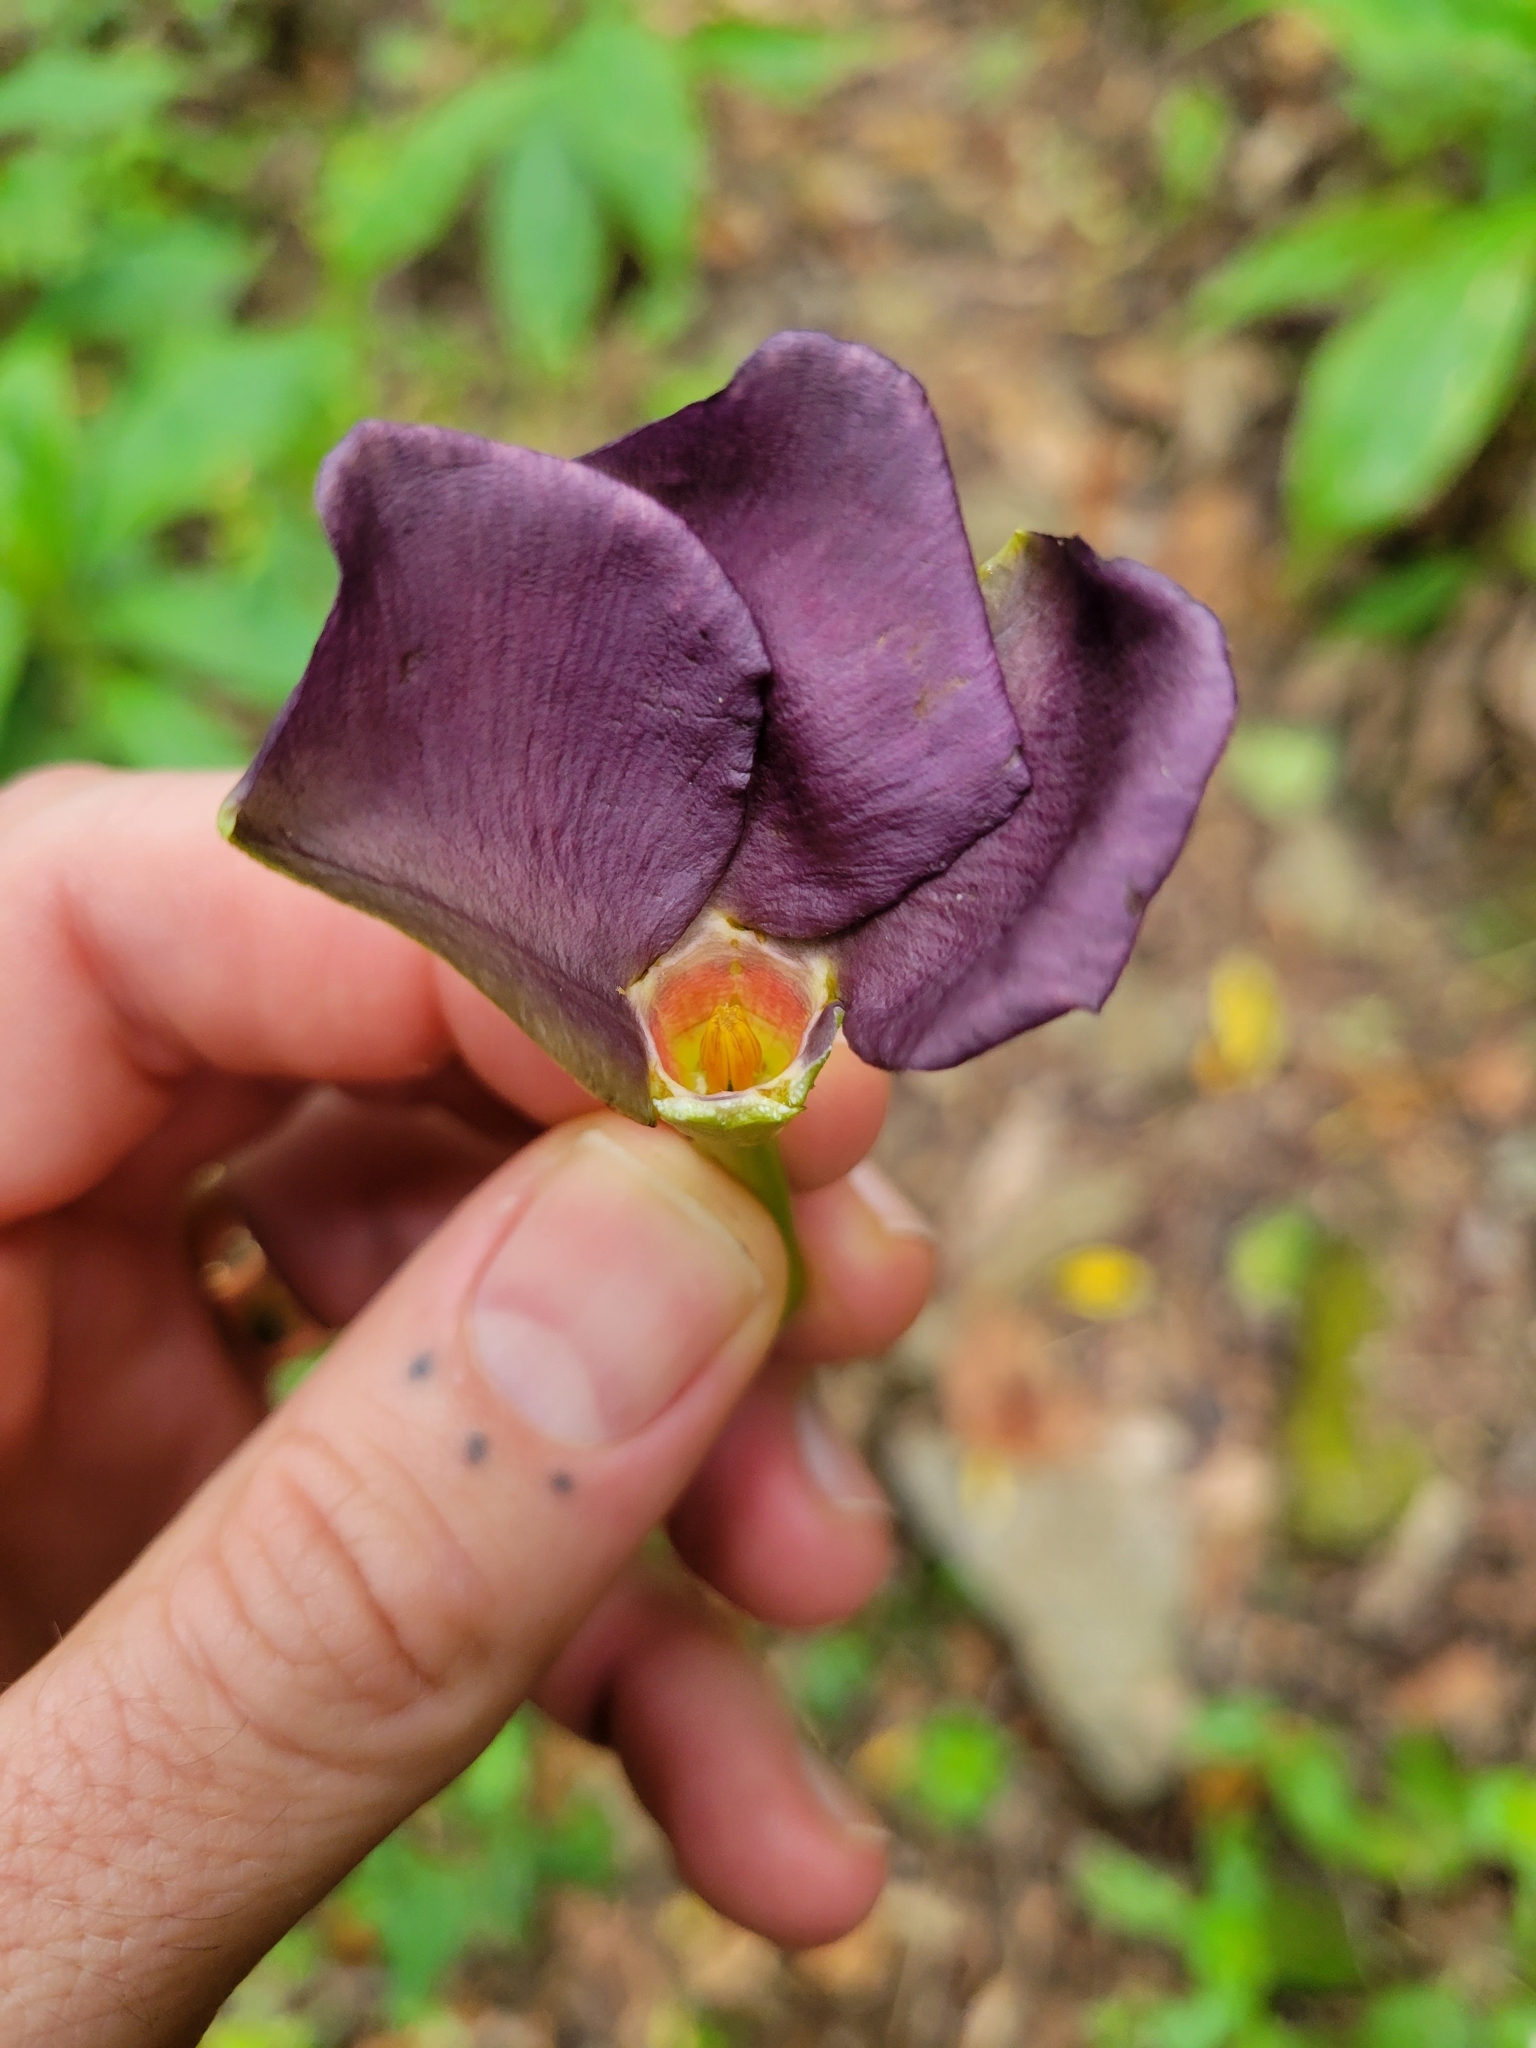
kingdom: Plantae
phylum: Tracheophyta
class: Magnoliopsida
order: Gentianales
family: Apocynaceae
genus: Mandevilla
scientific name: Mandevilla veraguasensis
